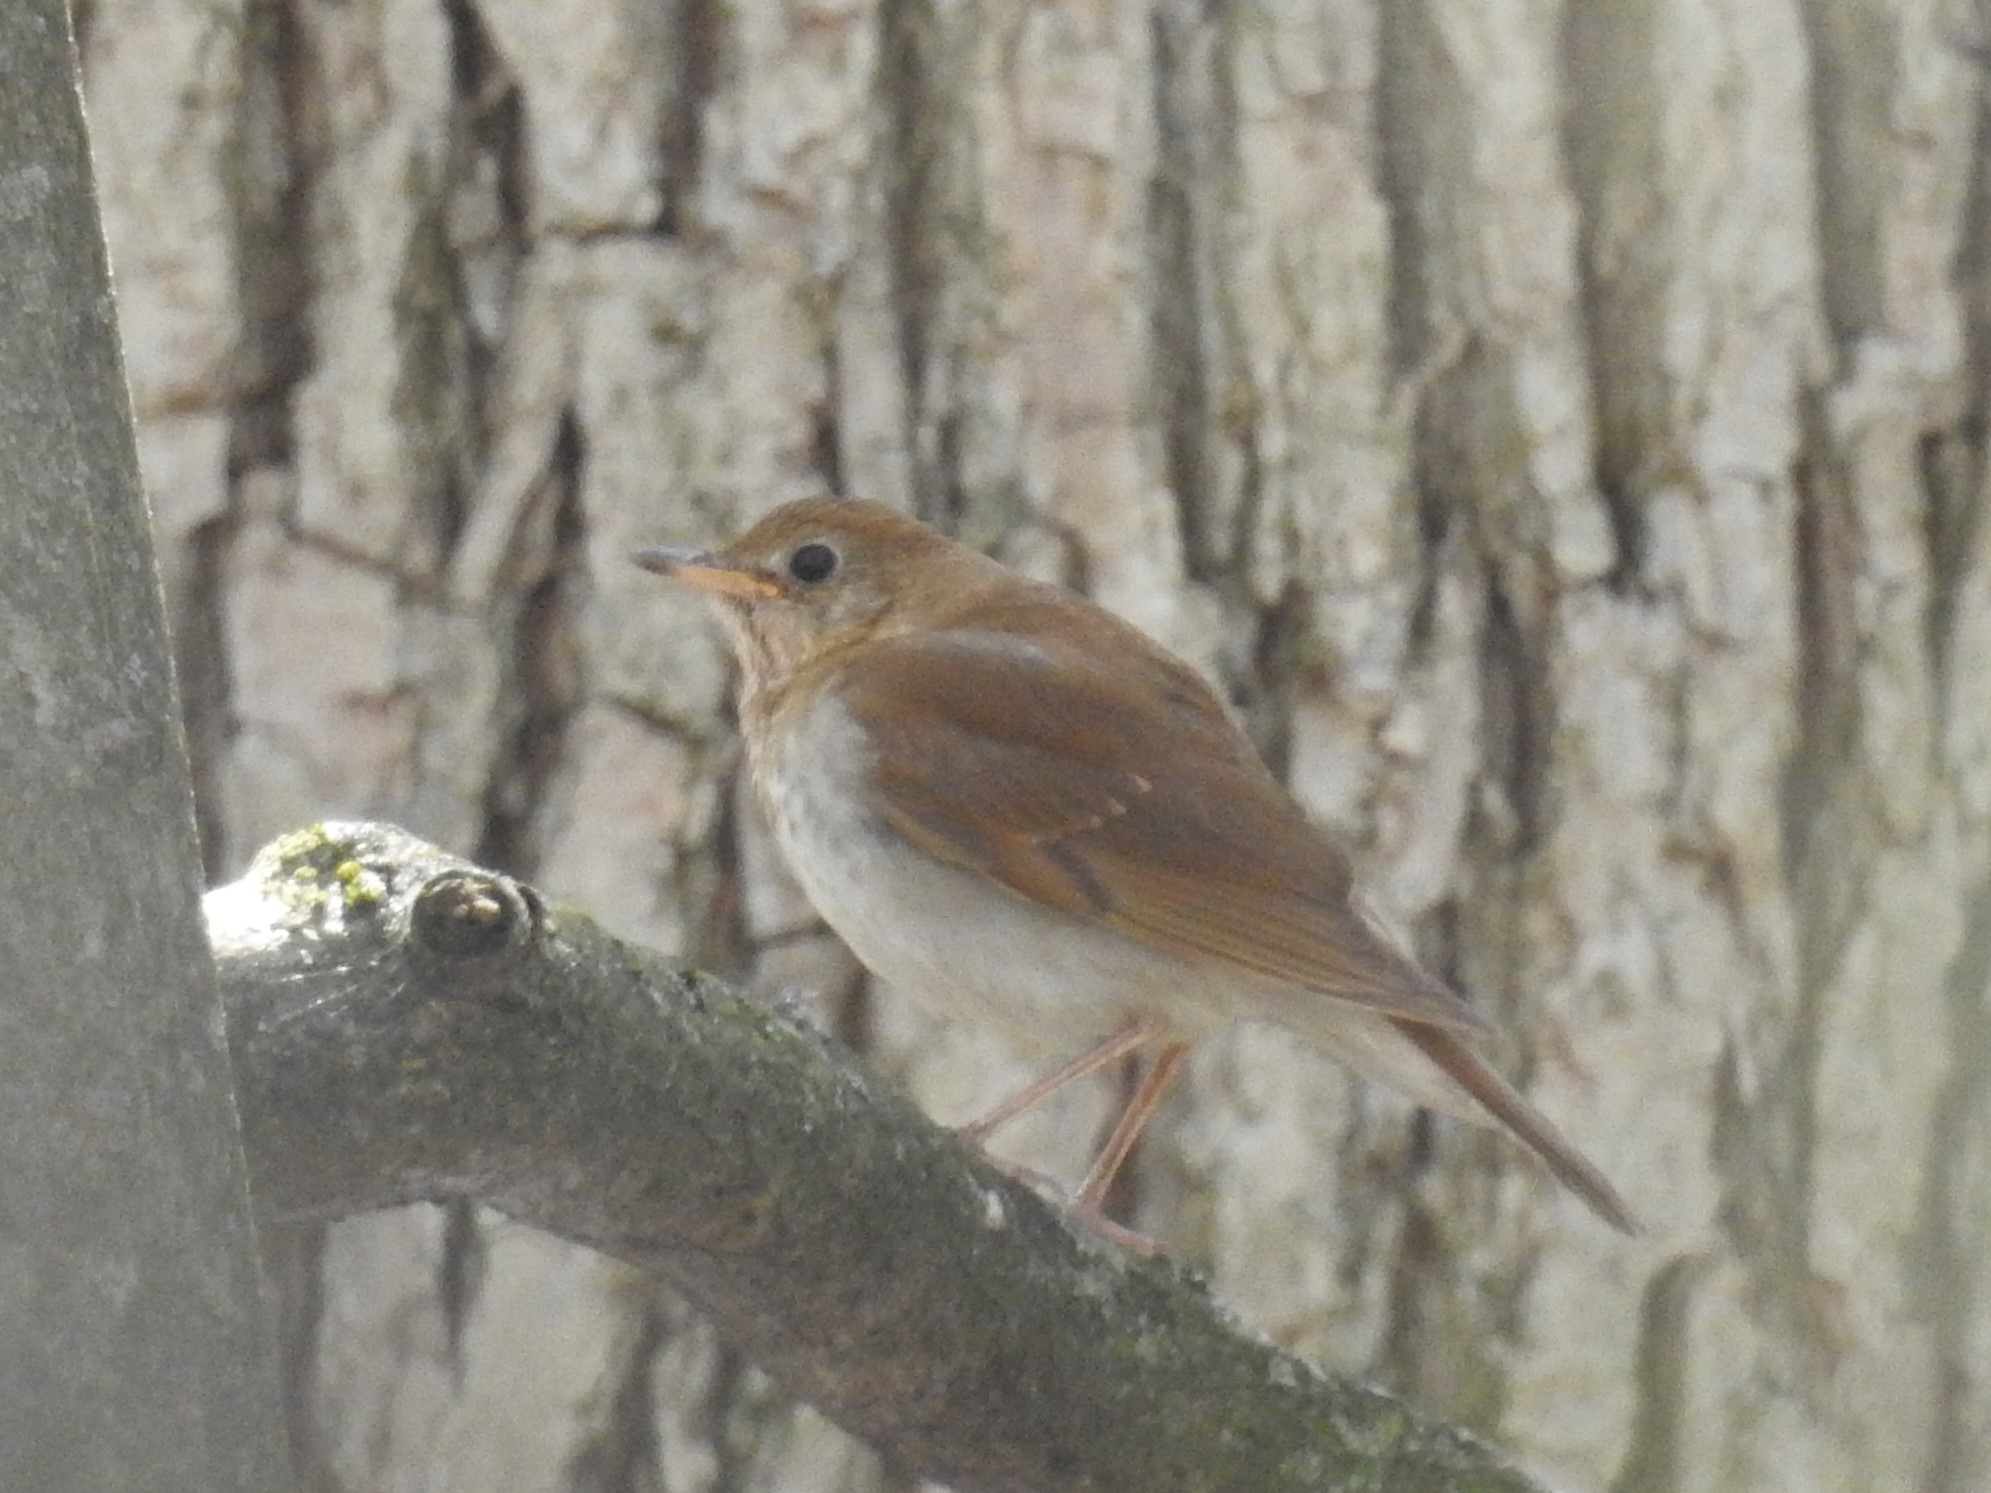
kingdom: Animalia
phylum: Chordata
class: Aves
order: Passeriformes
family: Turdidae
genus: Catharus
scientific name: Catharus fuscescens
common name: Veery
